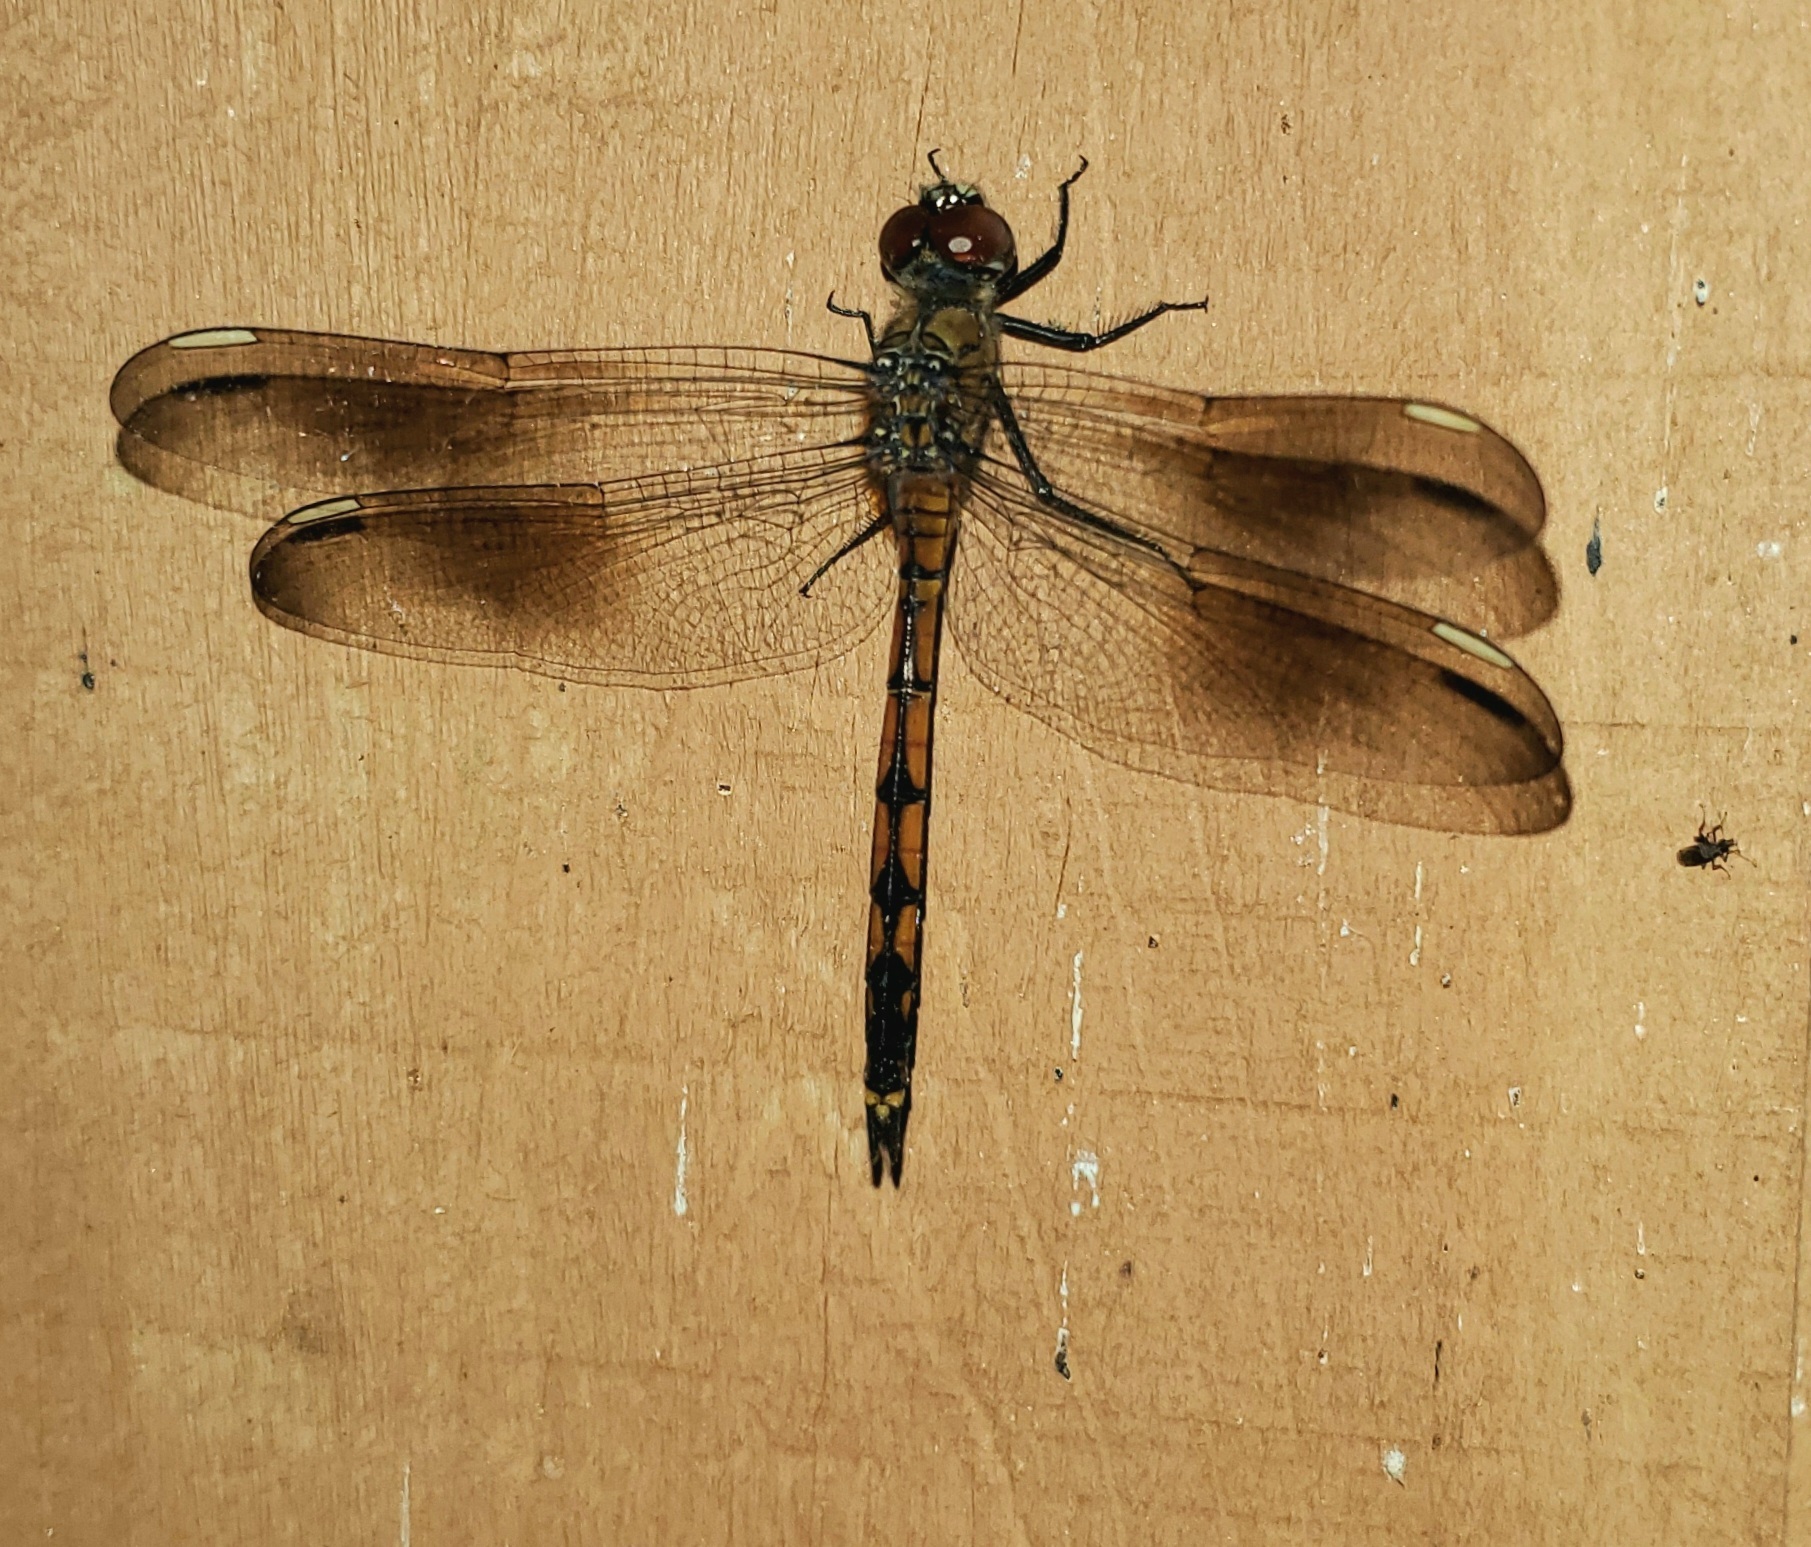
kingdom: Animalia
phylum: Arthropoda
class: Insecta
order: Odonata
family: Libellulidae
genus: Brachymesia
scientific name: Brachymesia gravida
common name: Four-spotted pennant
